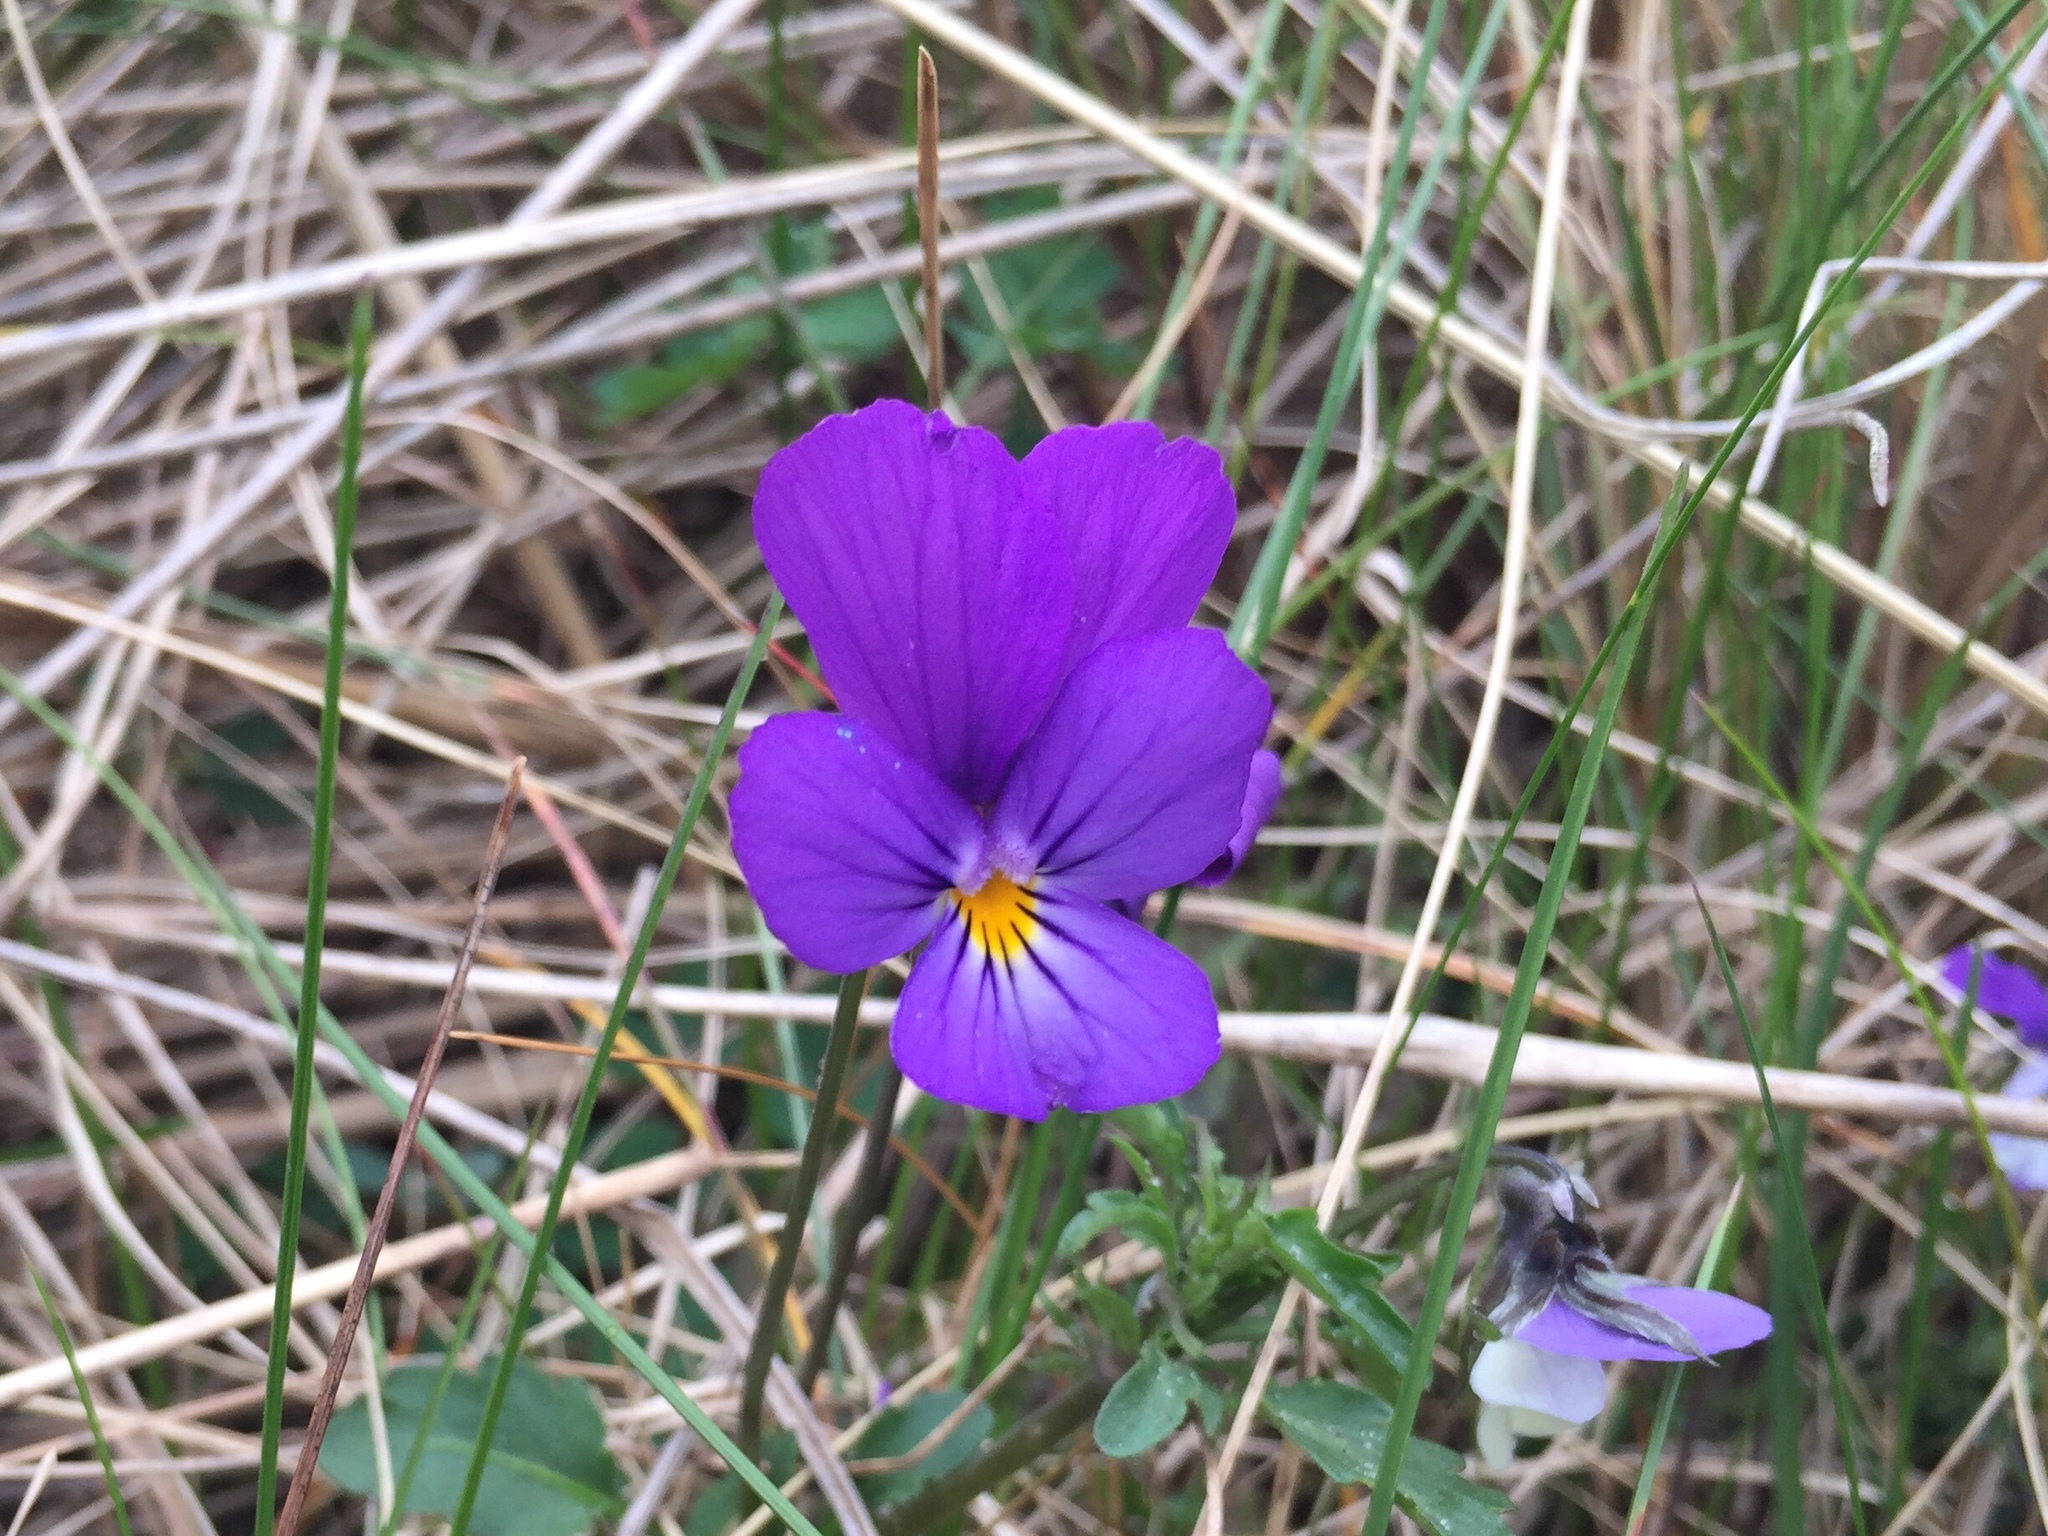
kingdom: Plantae
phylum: Tracheophyta
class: Magnoliopsida
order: Malpighiales
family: Violaceae
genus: Viola
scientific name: Viola tricolor
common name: Pansy
